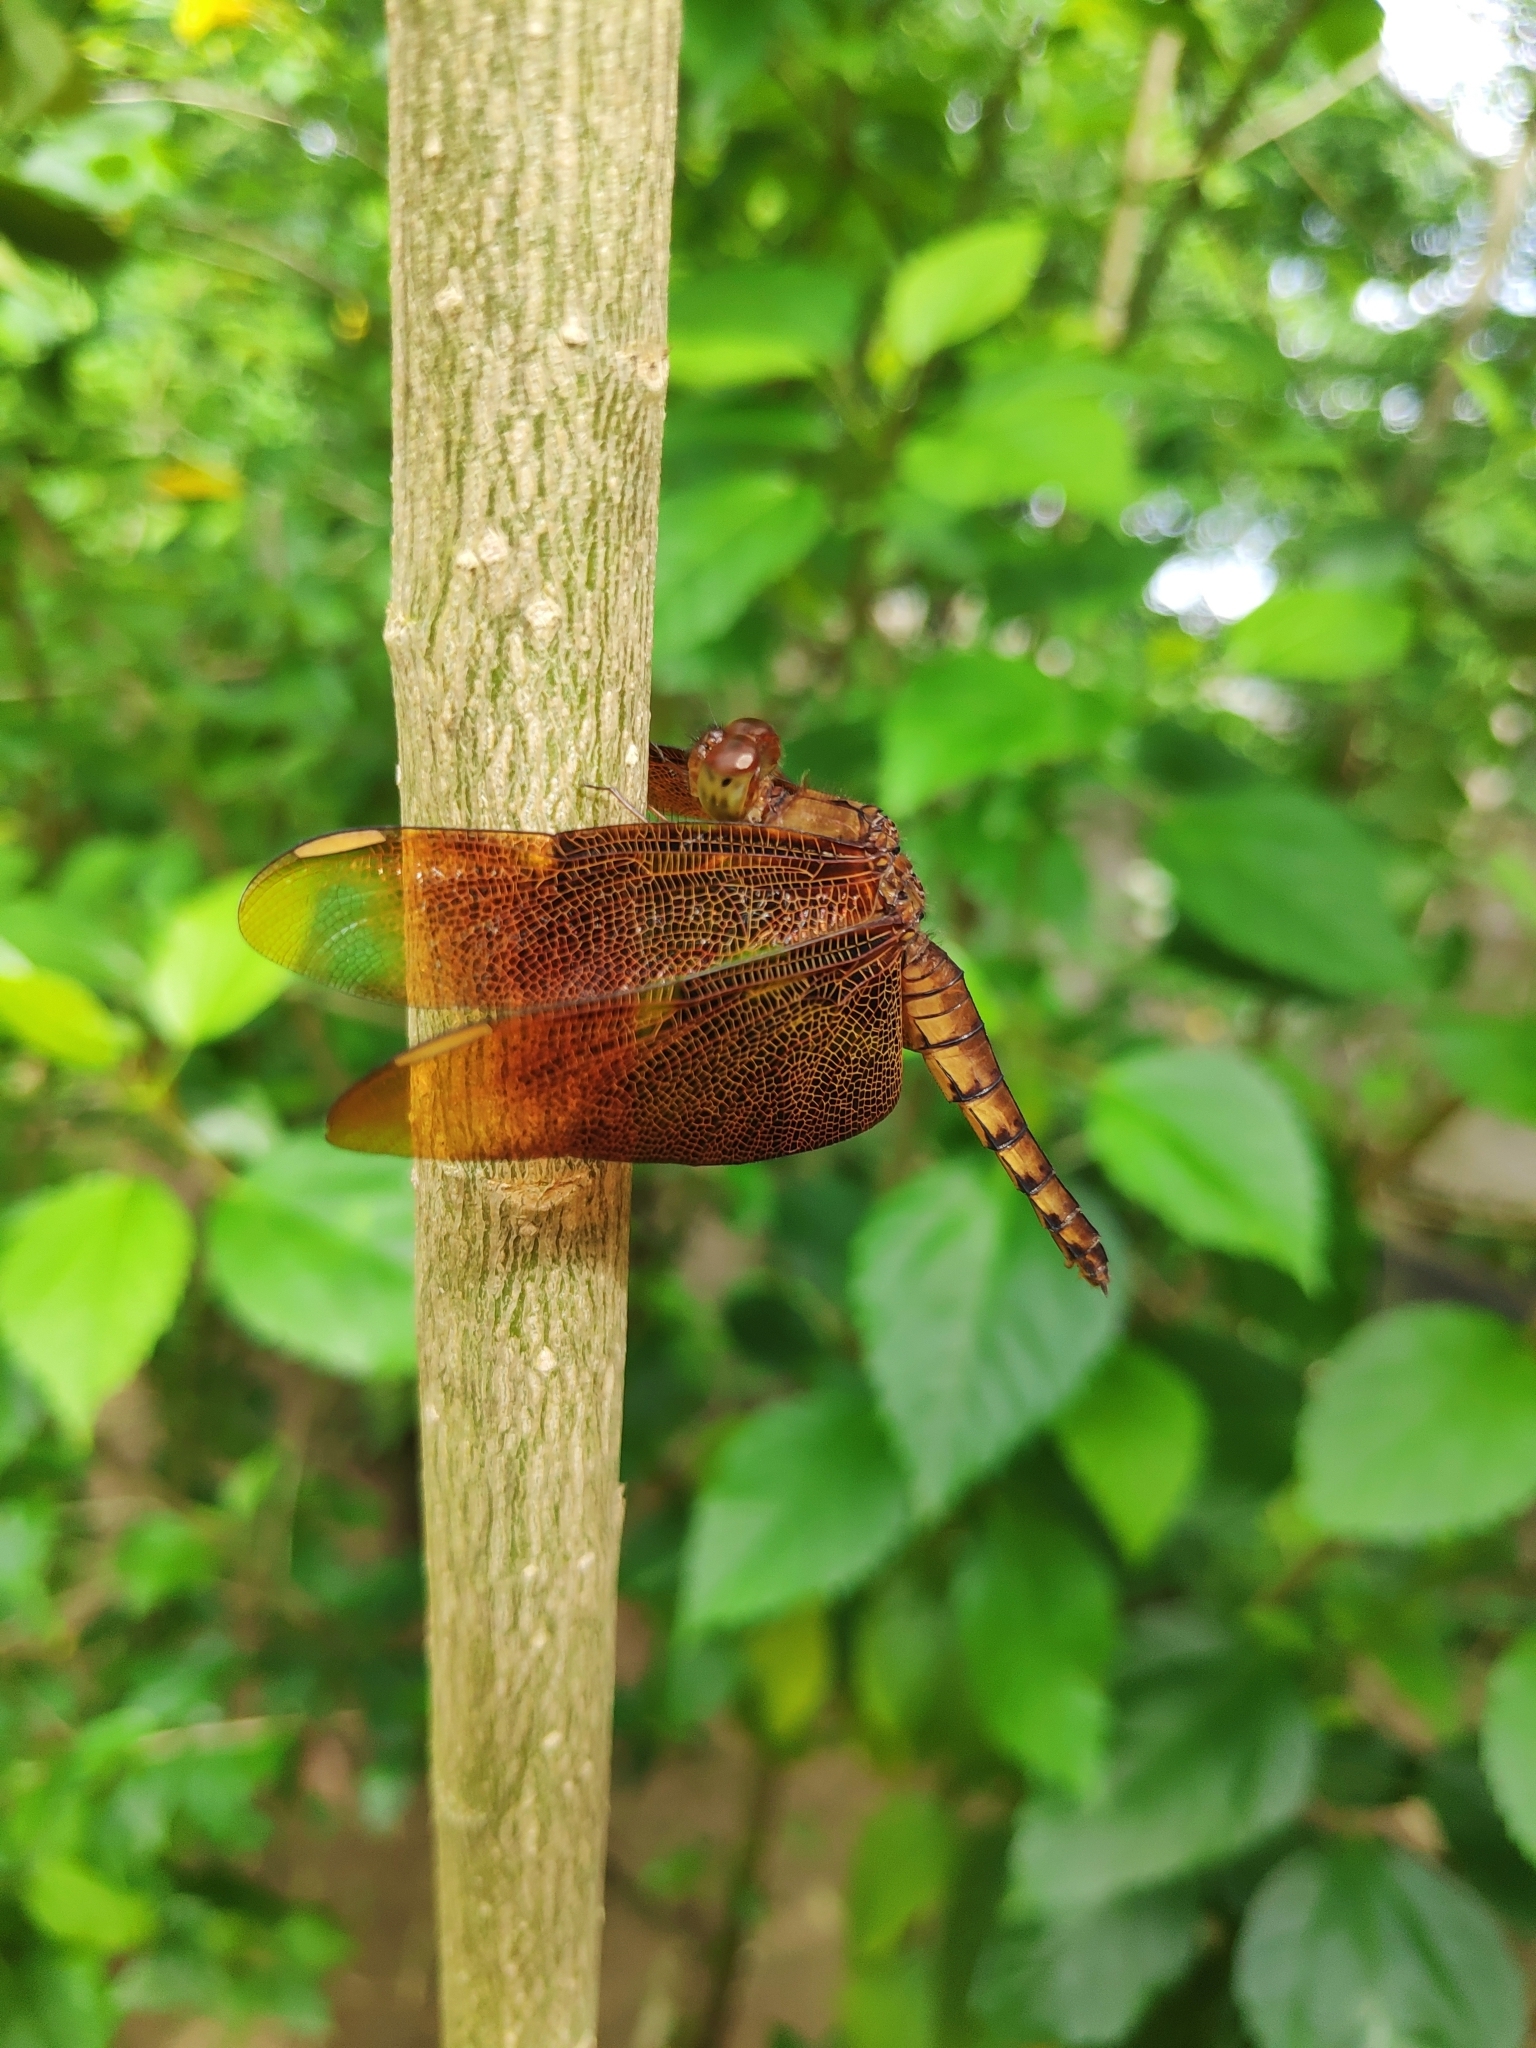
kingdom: Animalia
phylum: Arthropoda
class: Insecta
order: Odonata
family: Libellulidae
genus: Neurothemis
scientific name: Neurothemis fulvia
